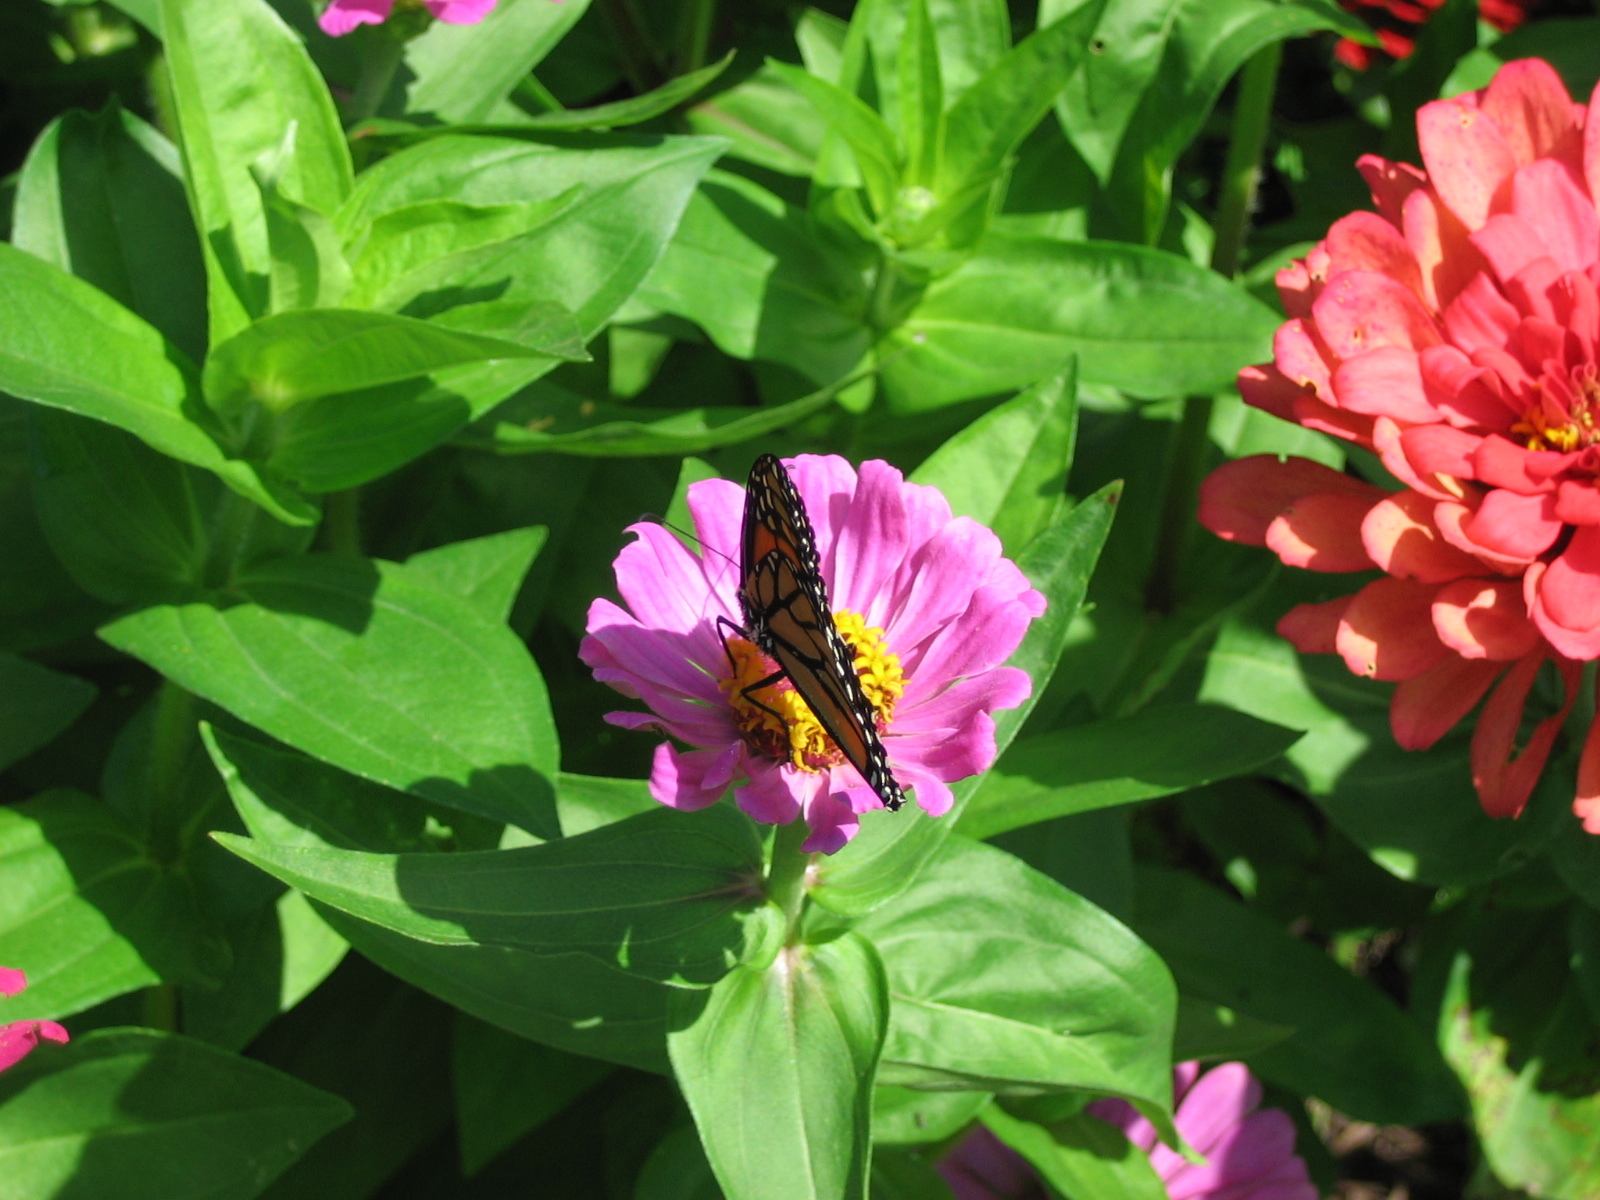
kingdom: Animalia
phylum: Arthropoda
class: Insecta
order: Lepidoptera
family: Nymphalidae
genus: Danaus
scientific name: Danaus plexippus
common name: Monarch
